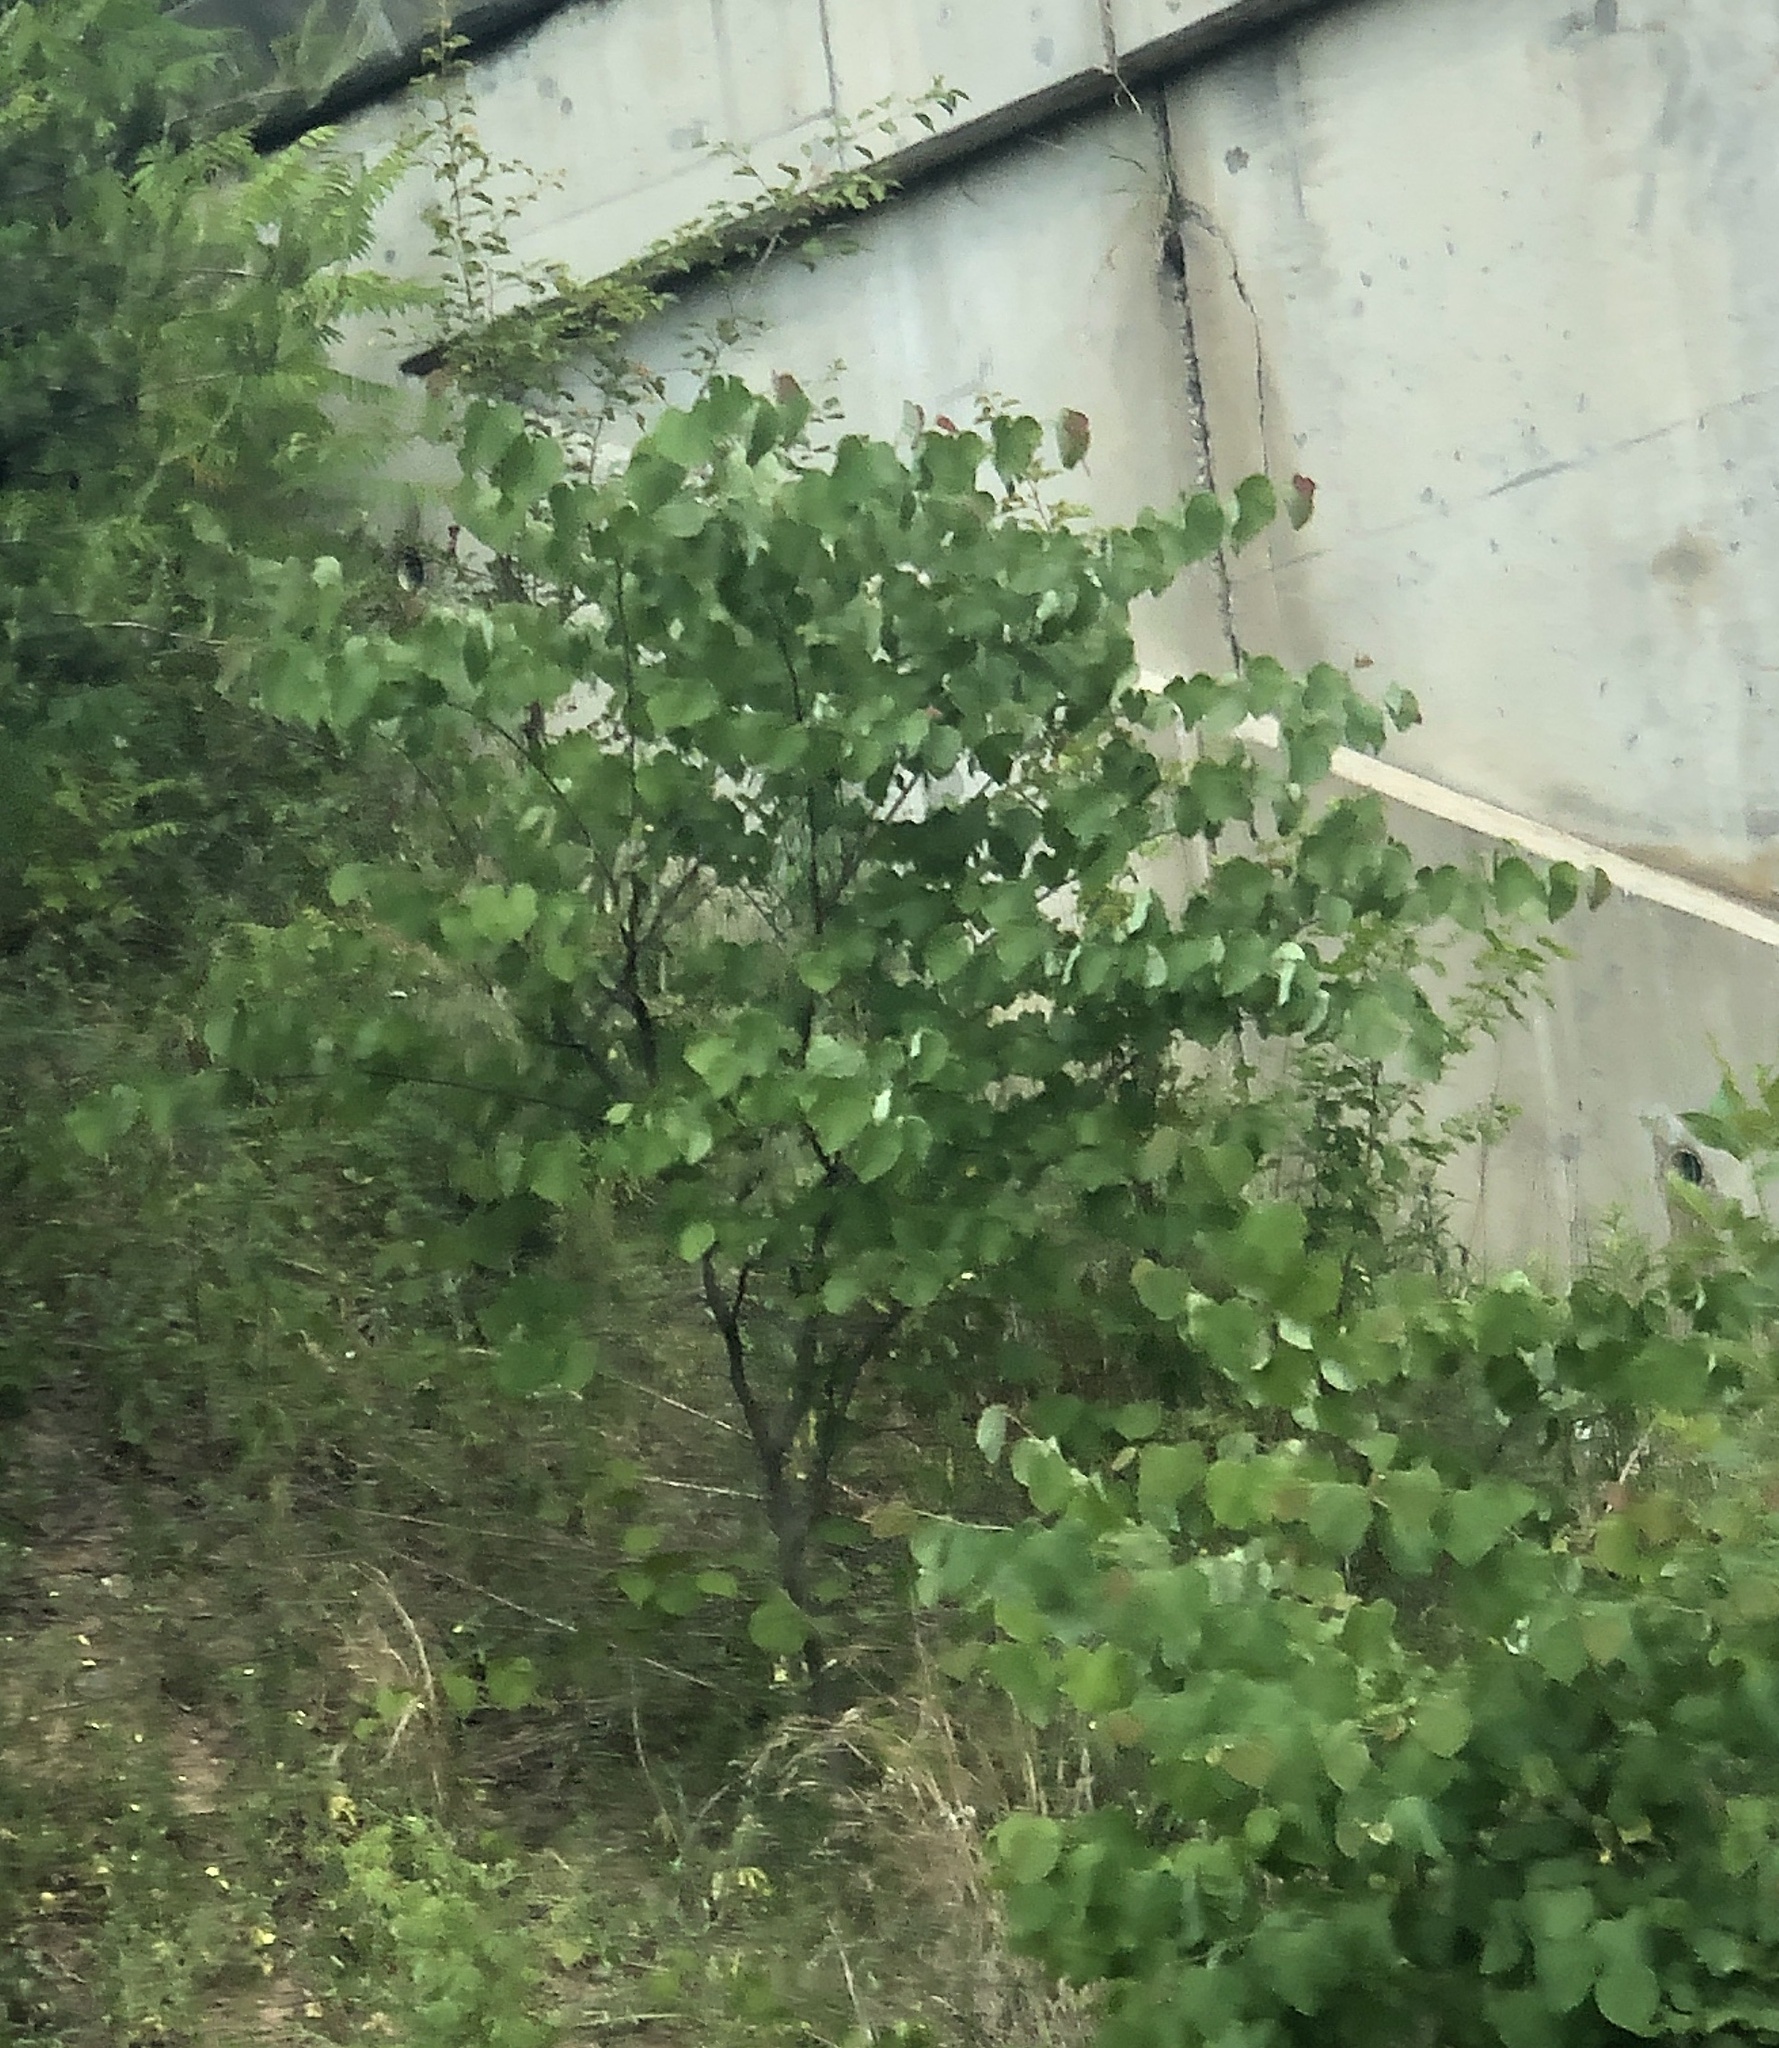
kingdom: Plantae
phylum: Tracheophyta
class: Magnoliopsida
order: Fabales
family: Fabaceae
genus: Cercis
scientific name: Cercis canadensis
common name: Eastern redbud
